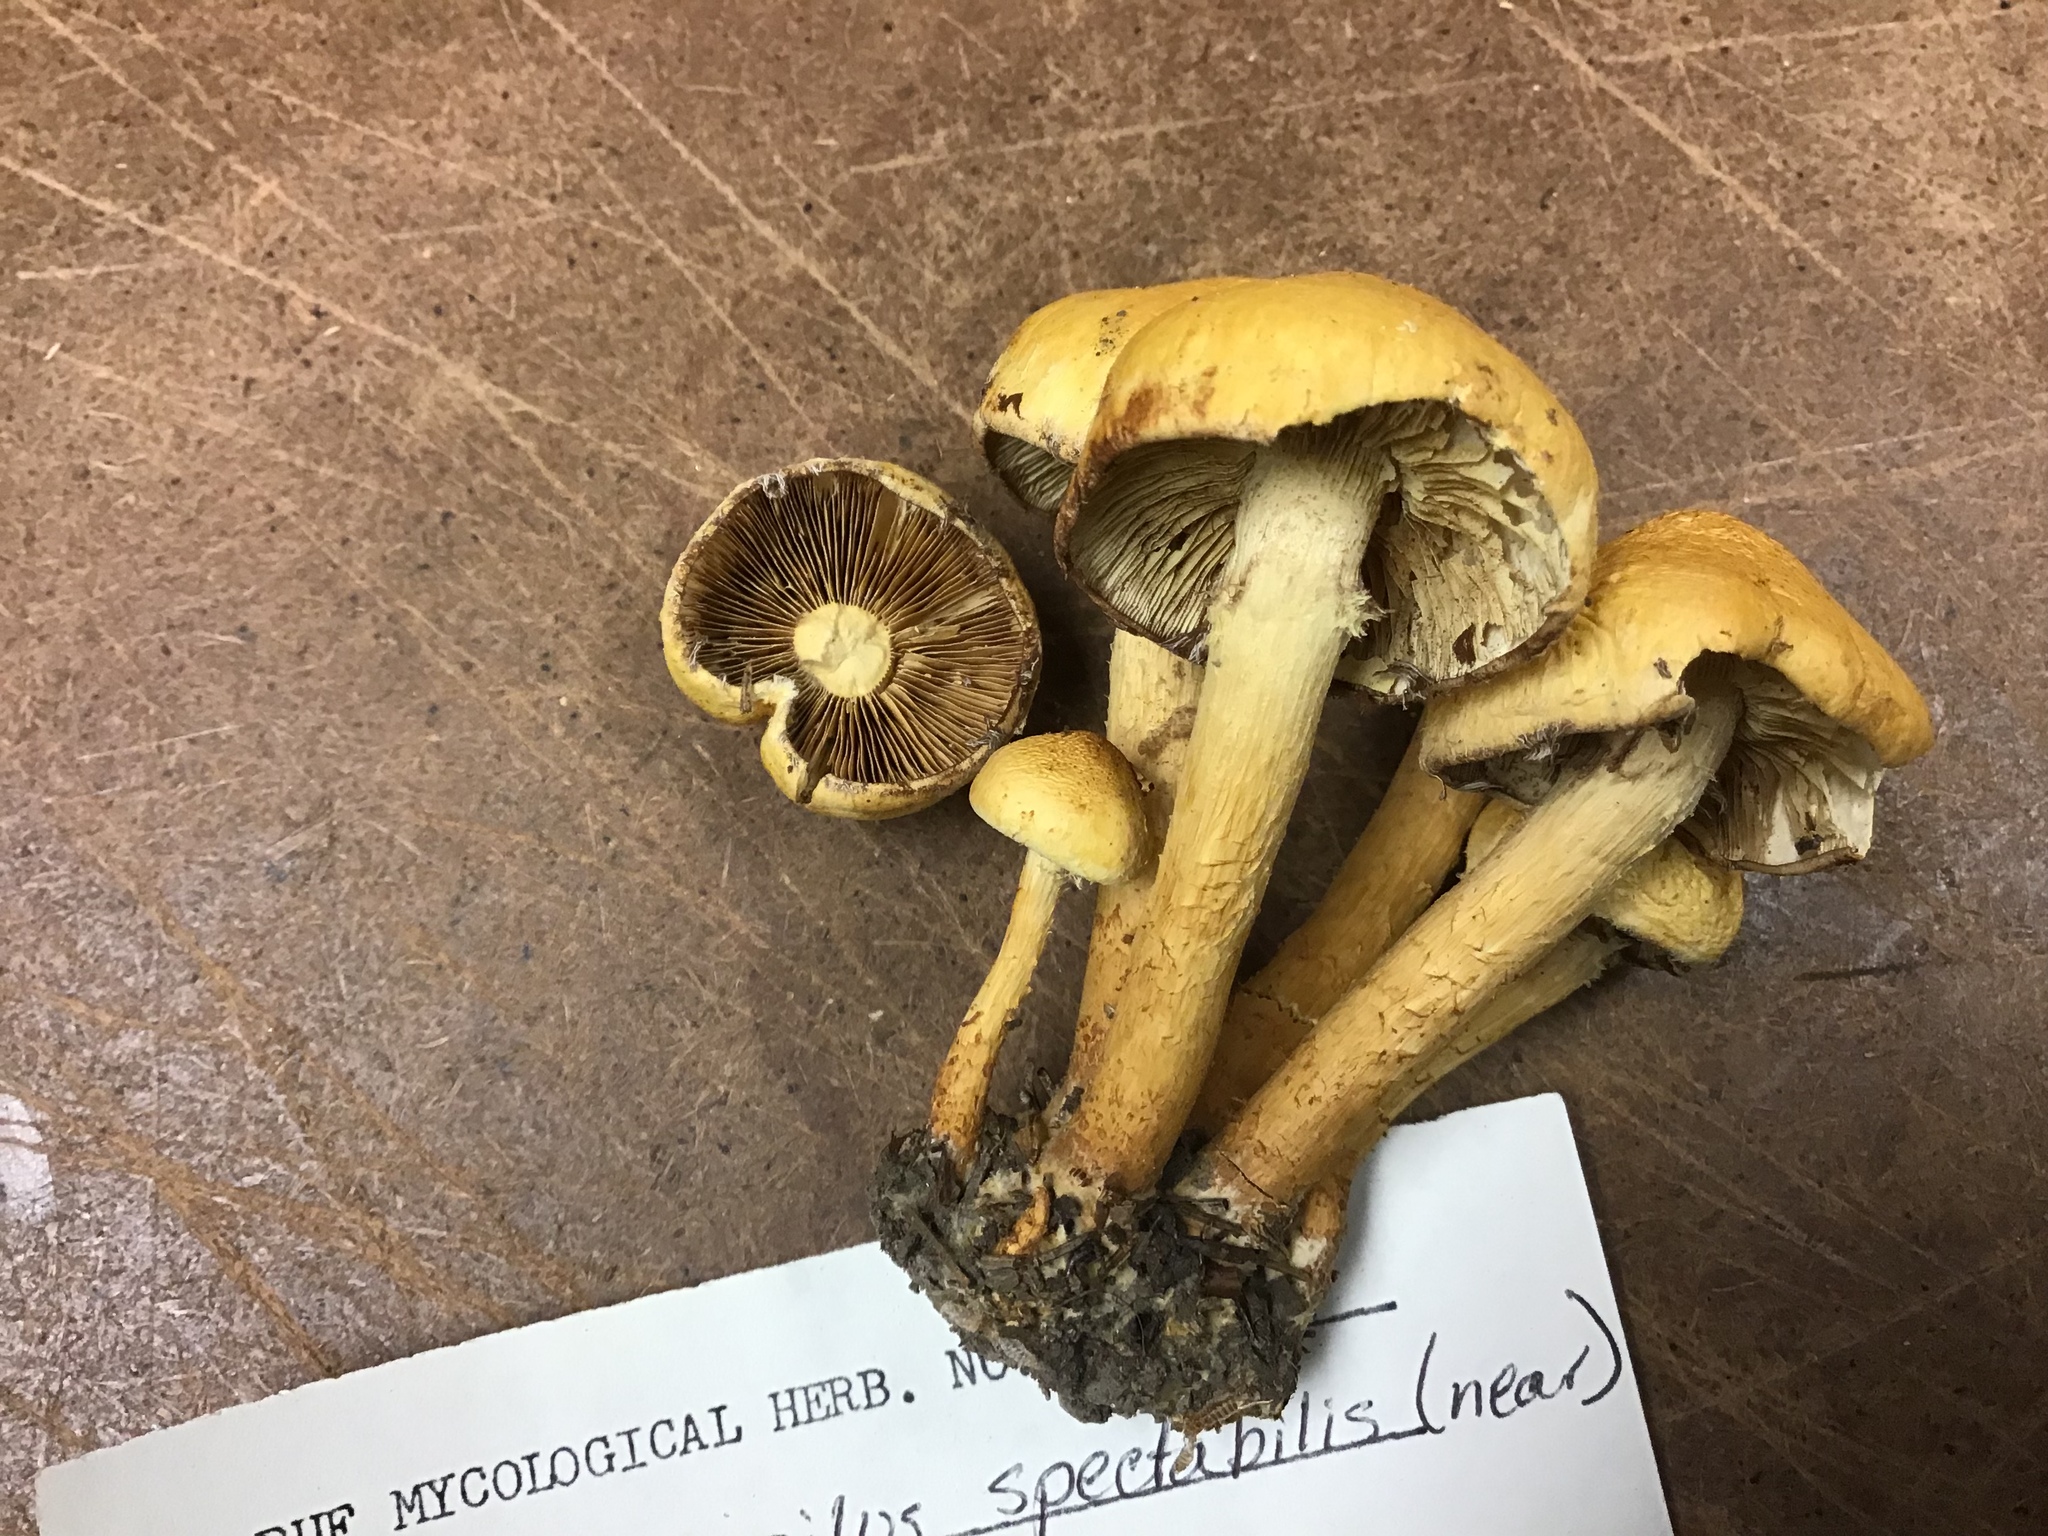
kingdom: Fungi
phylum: Basidiomycota
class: Agaricomycetes
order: Agaricales
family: Hymenogastraceae
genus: Gymnopilus
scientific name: Gymnopilus luteus
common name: Yellow gymnopilus
